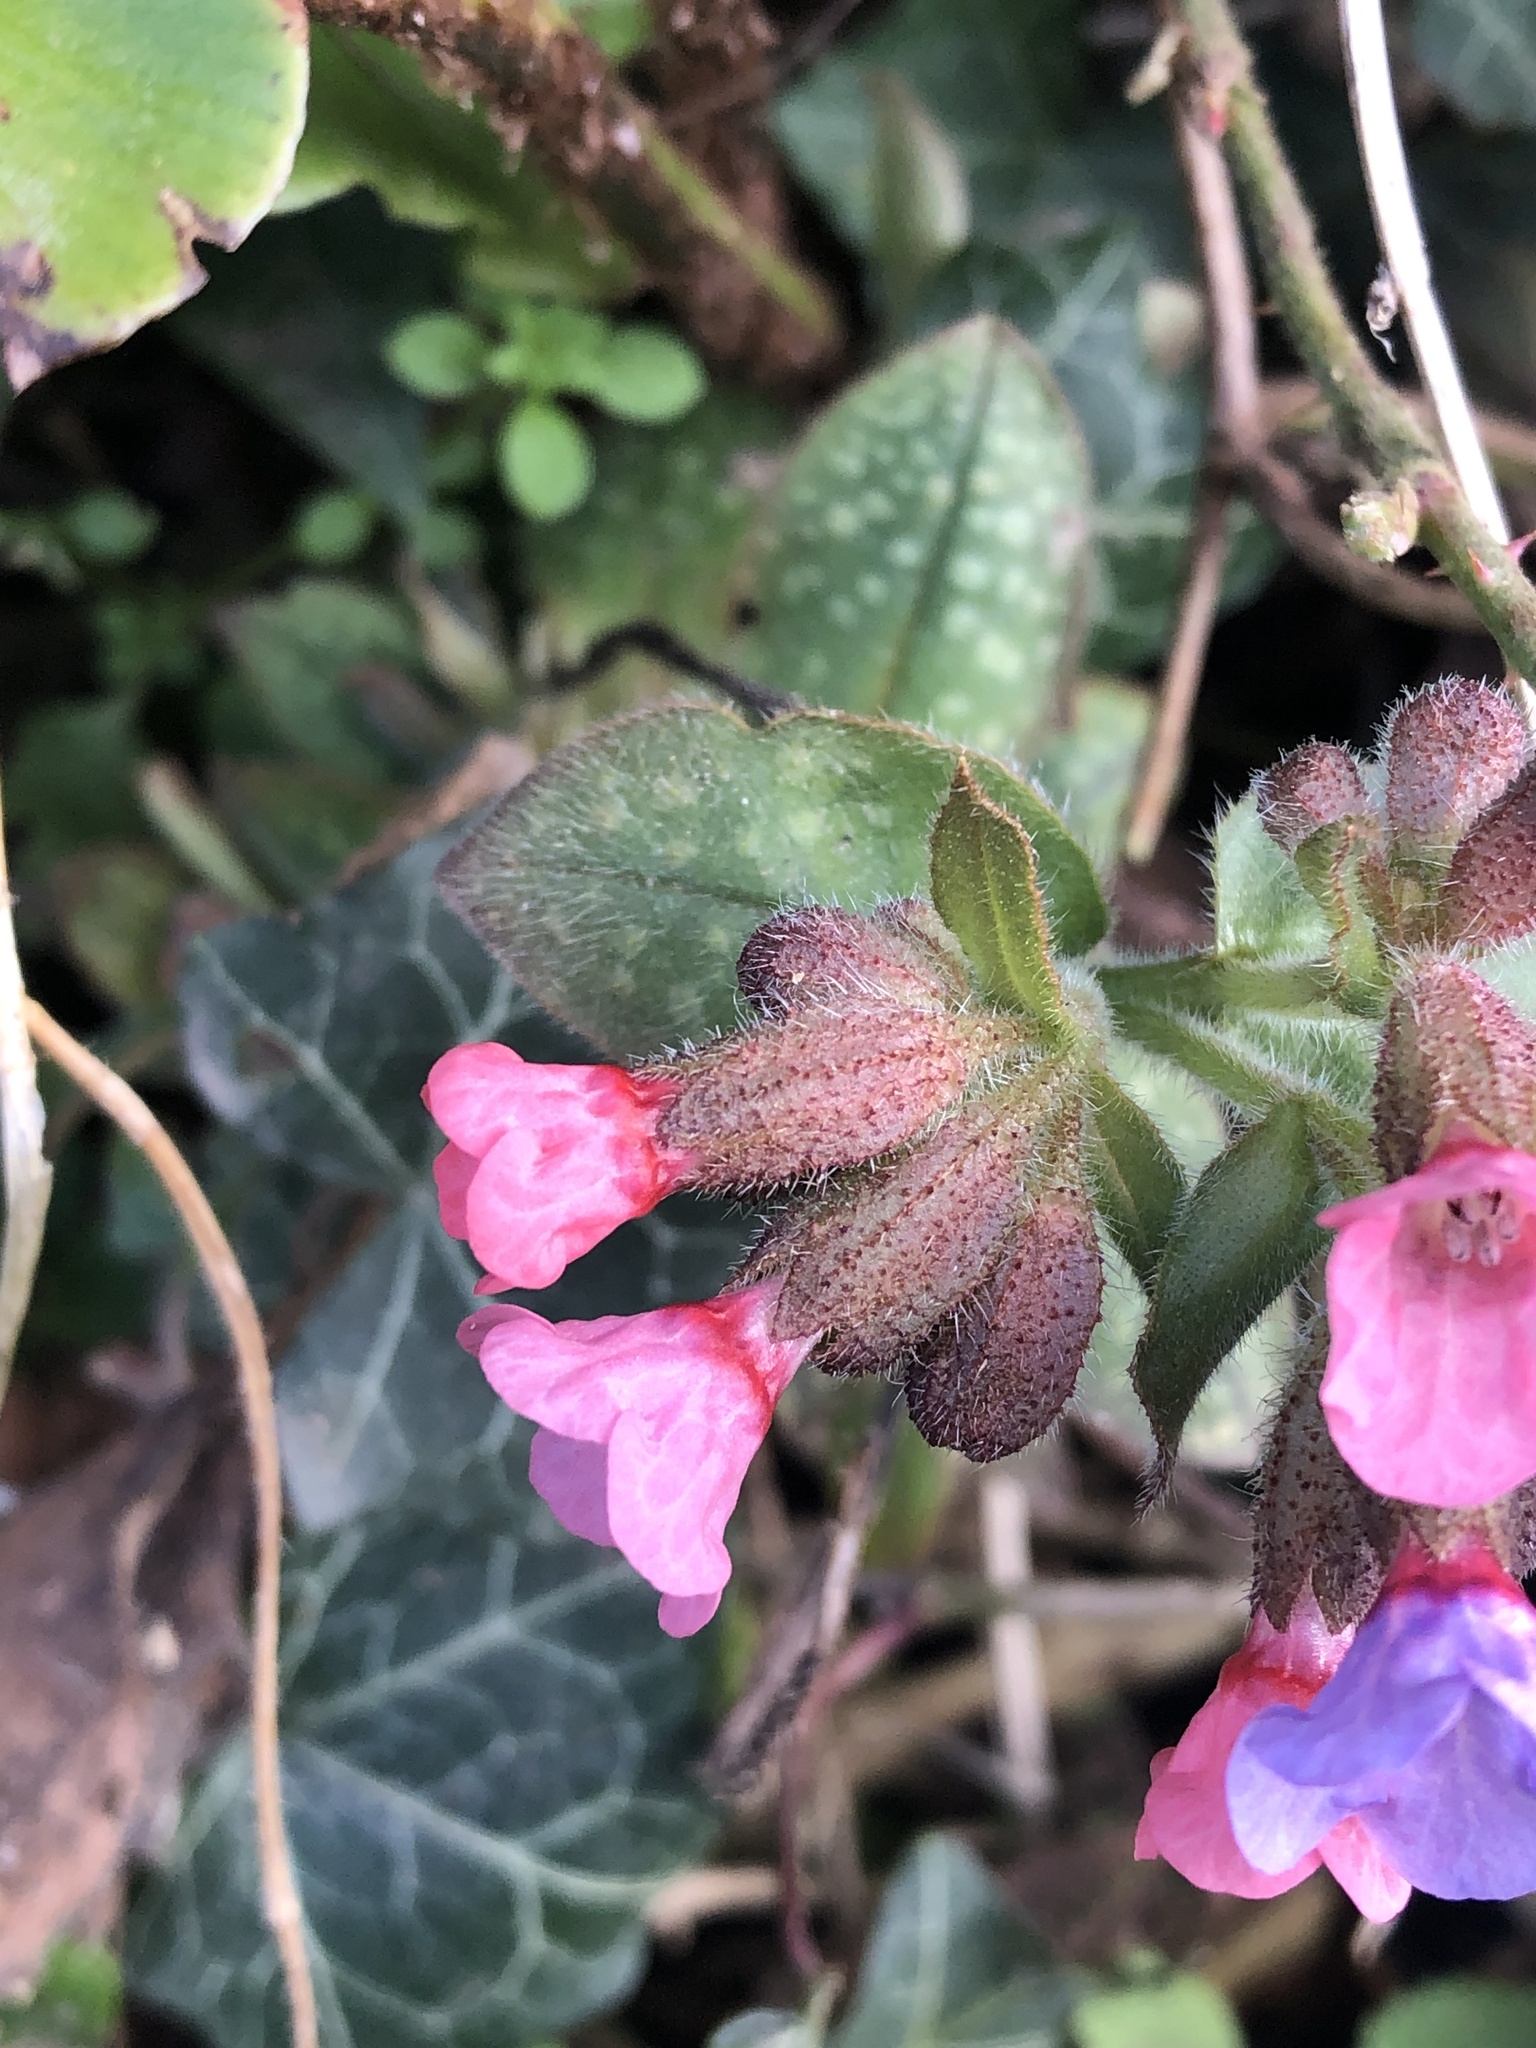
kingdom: Plantae
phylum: Tracheophyta
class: Magnoliopsida
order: Boraginales
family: Boraginaceae
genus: Pulmonaria
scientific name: Pulmonaria officinalis
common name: Lungwort
